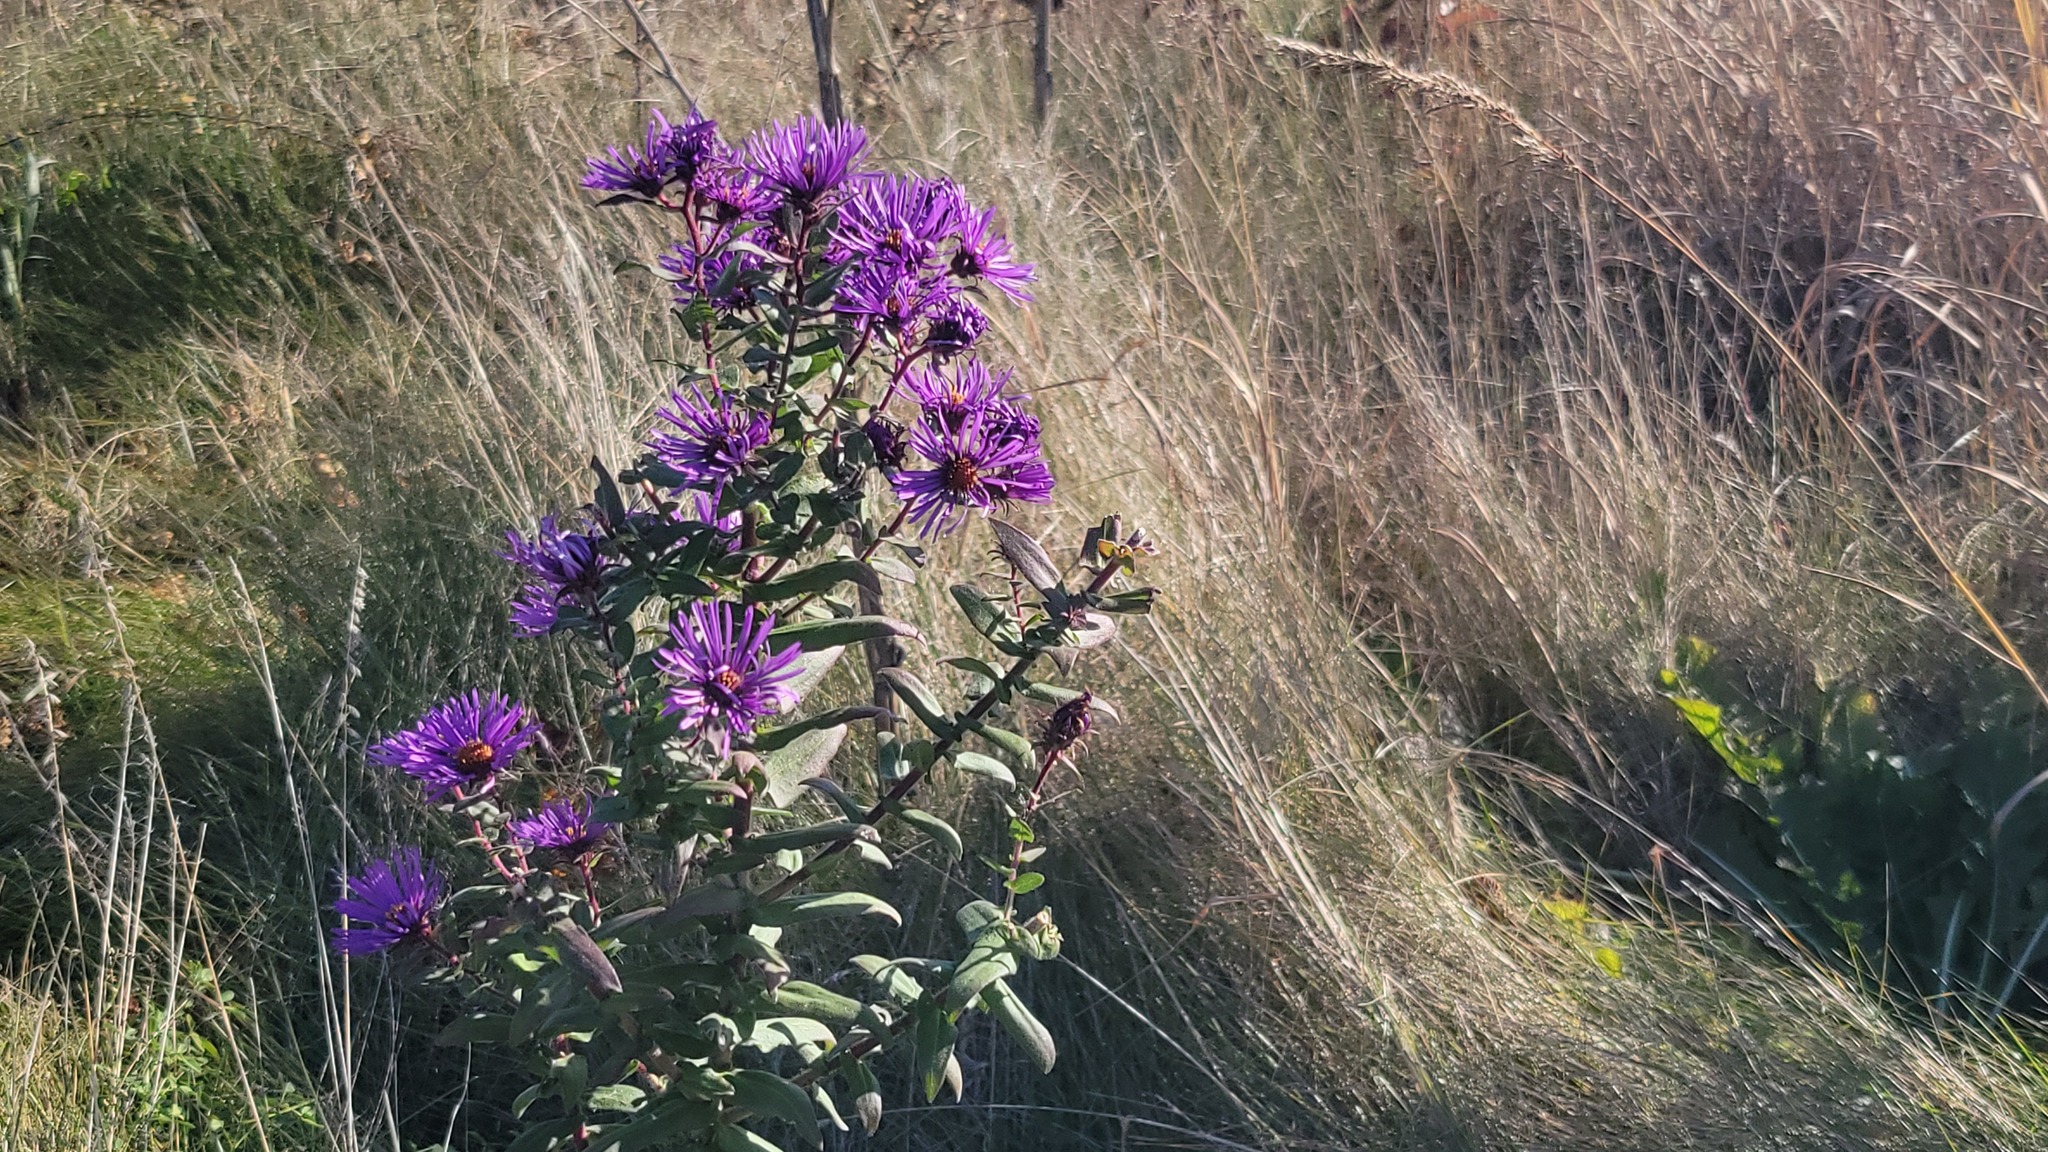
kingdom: Plantae
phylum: Tracheophyta
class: Magnoliopsida
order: Asterales
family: Asteraceae
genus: Symphyotrichum
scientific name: Symphyotrichum novae-angliae
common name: Michaelmas daisy
